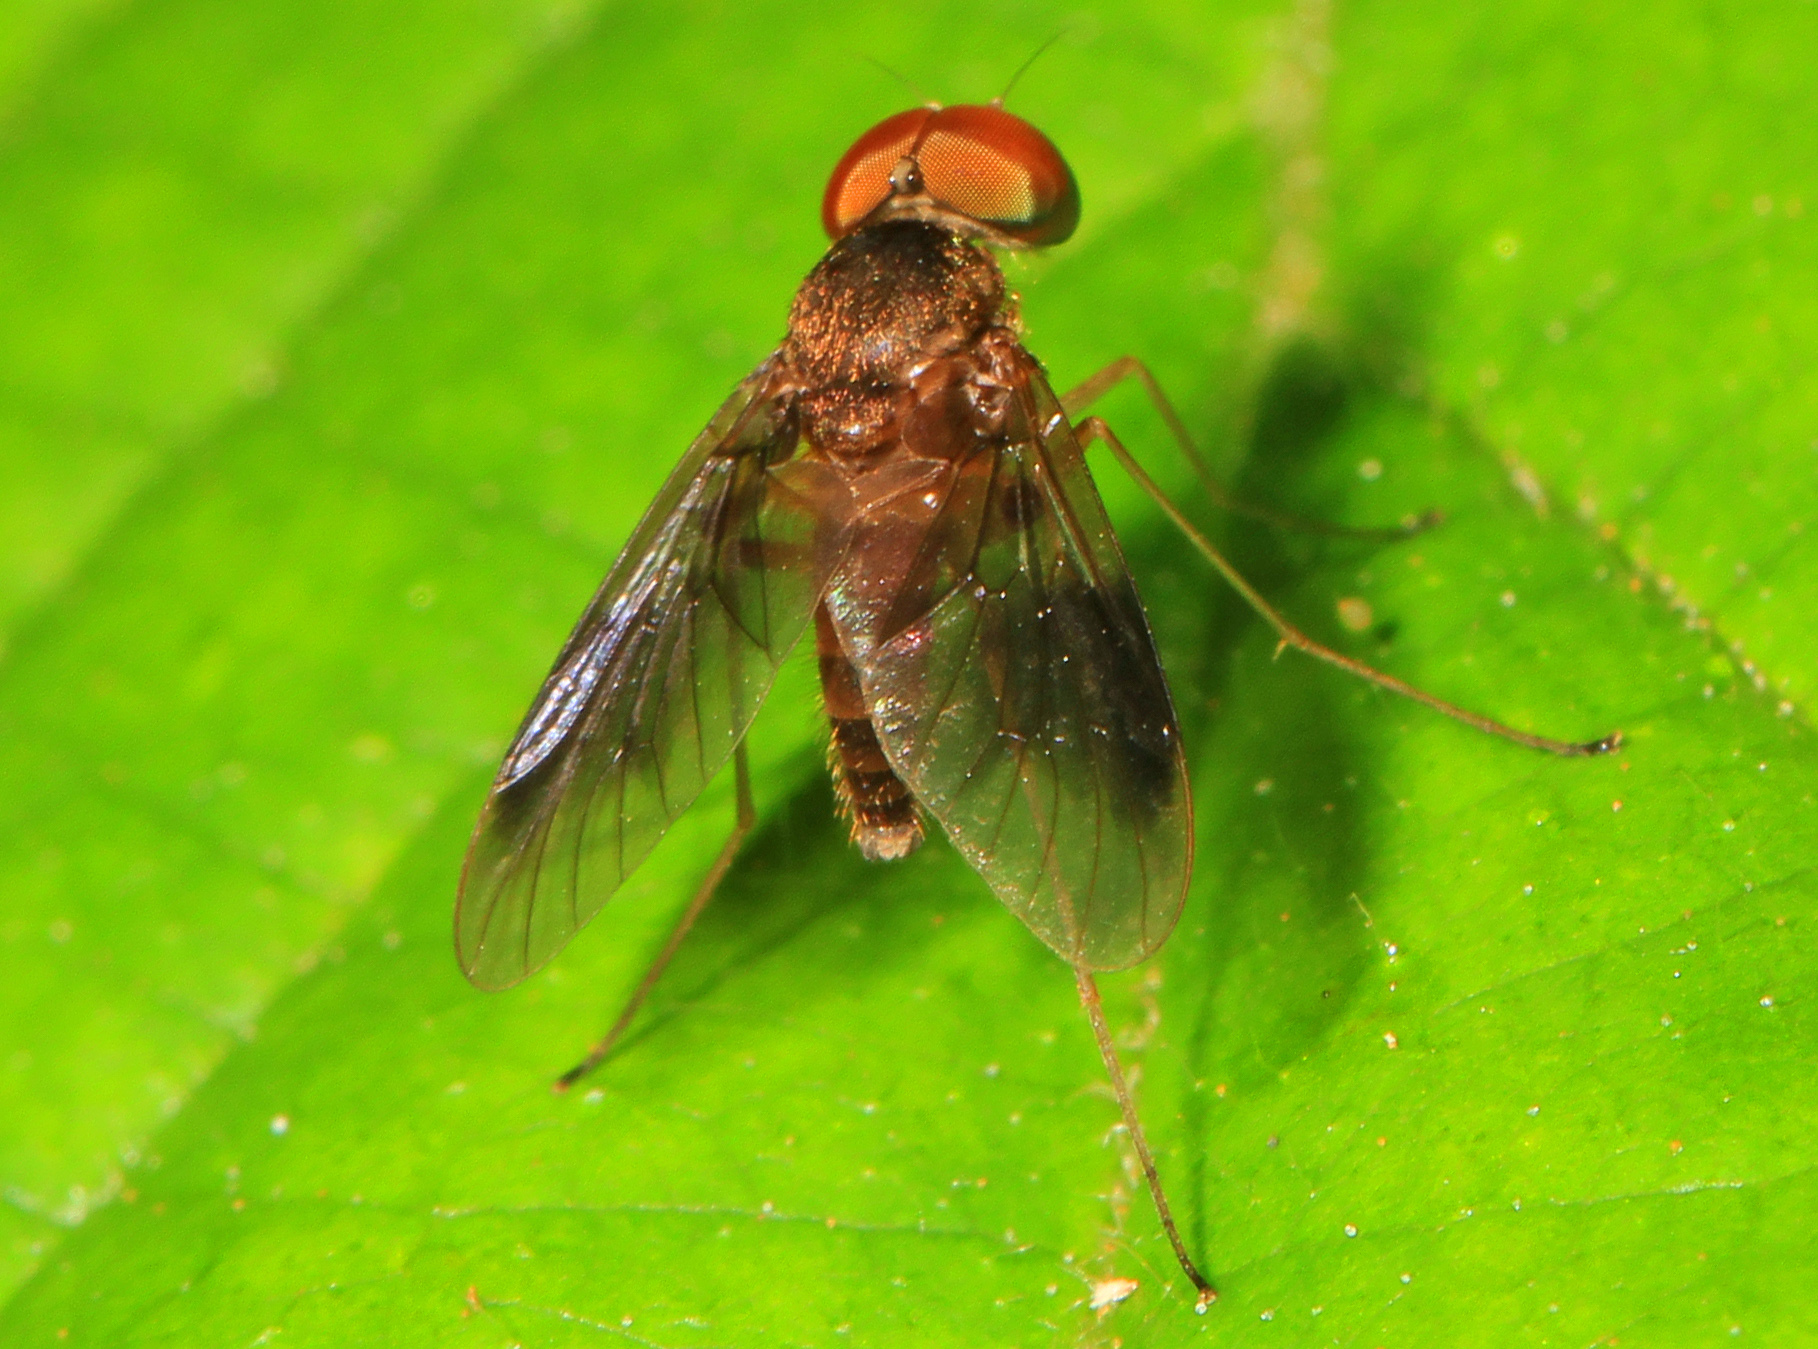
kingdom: Animalia
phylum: Arthropoda
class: Insecta
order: Diptera
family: Rhagionidae
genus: Chrysopilus
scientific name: Chrysopilus quadratus
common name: Quadrate snipe fly
